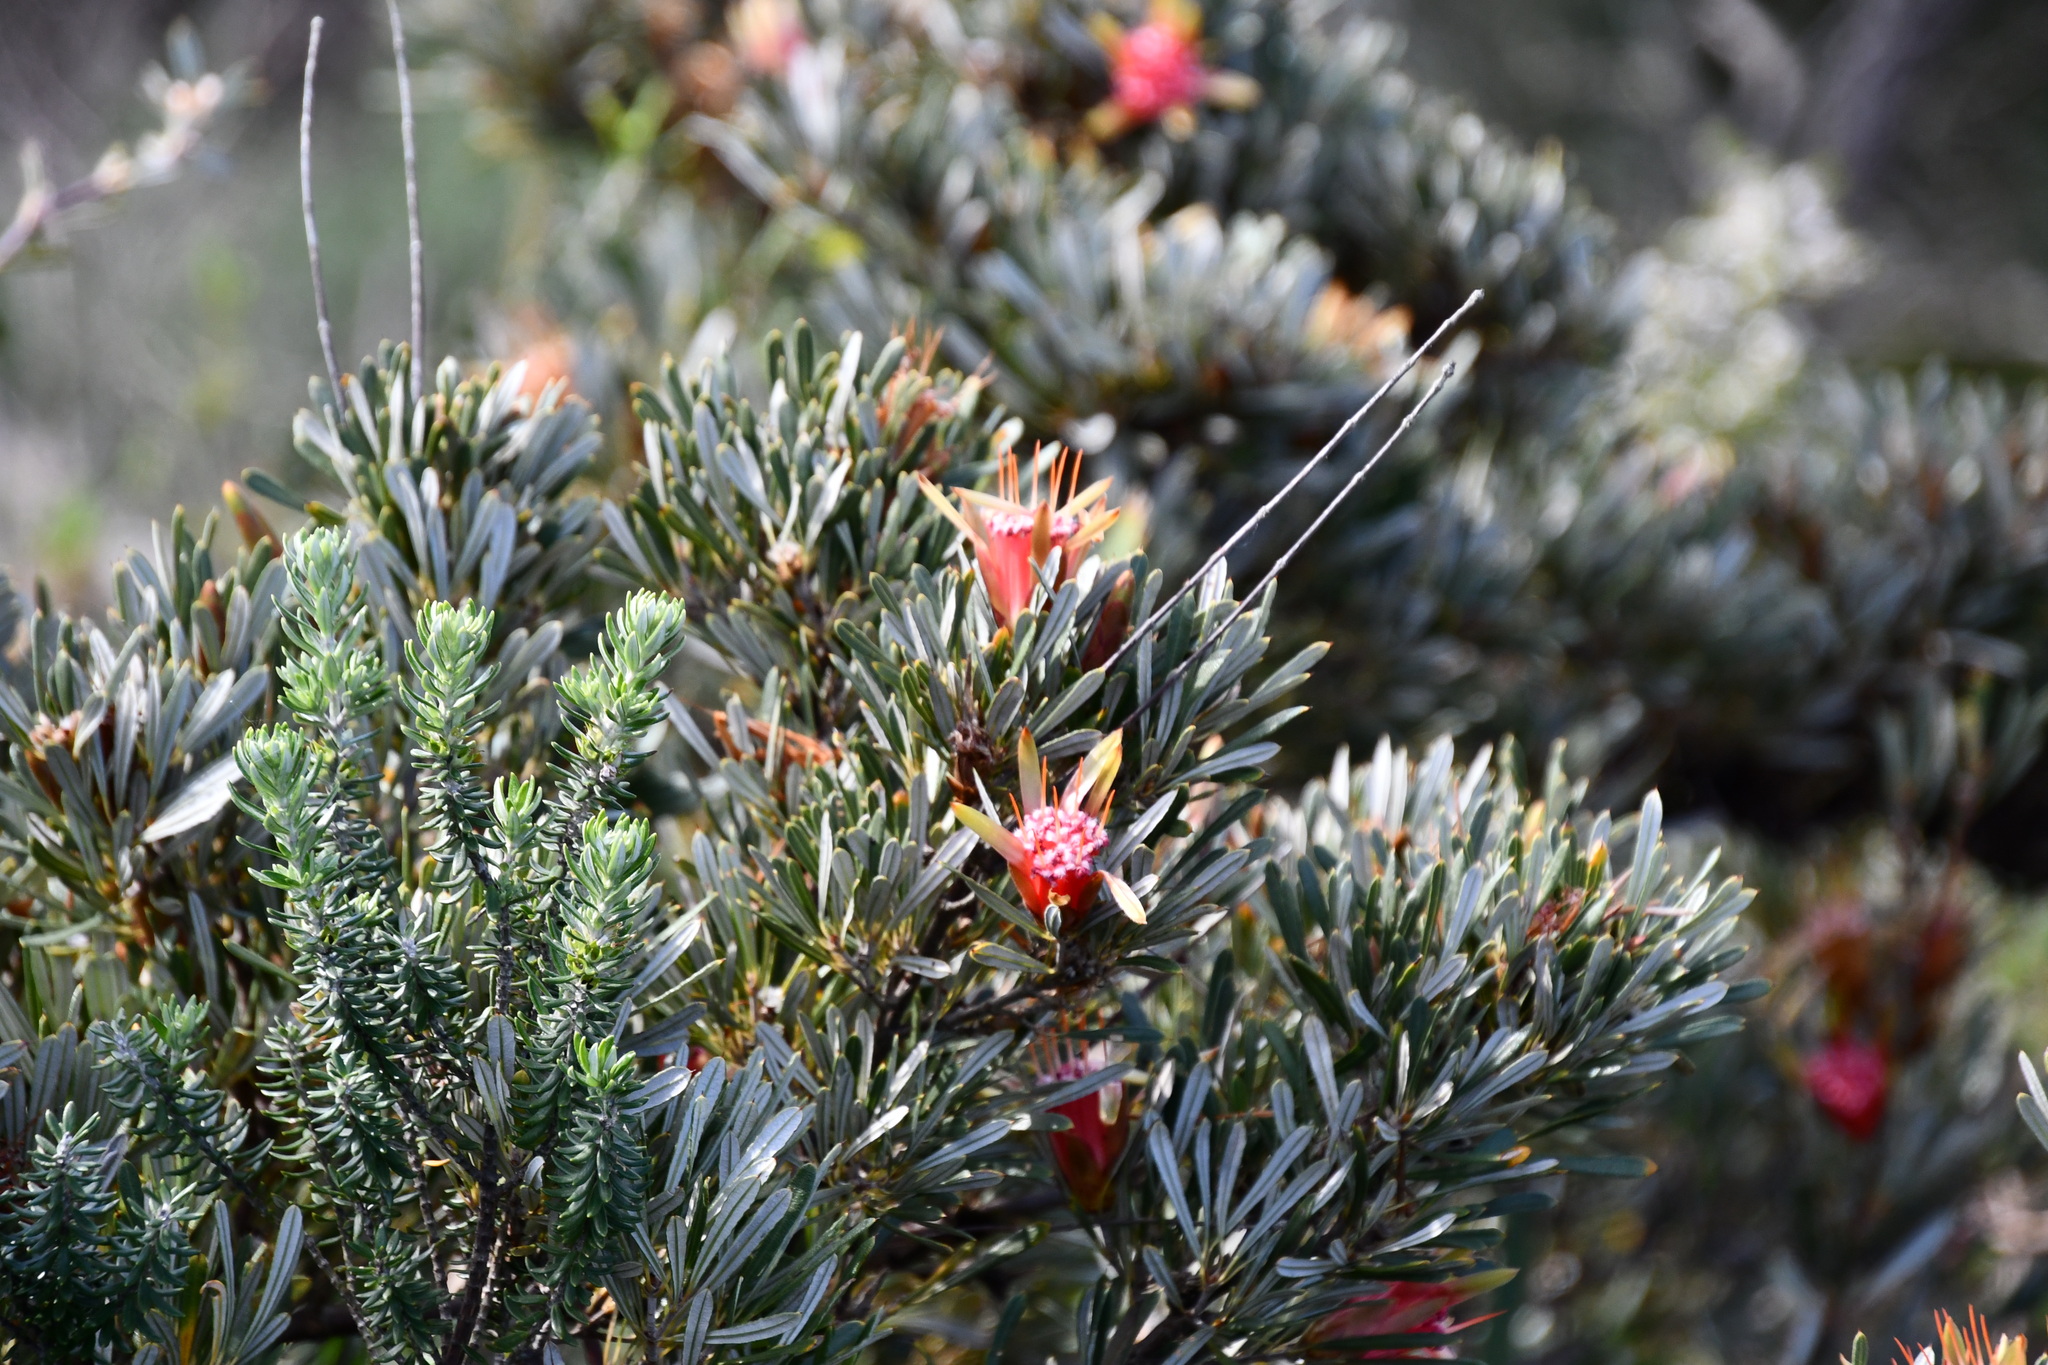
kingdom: Plantae
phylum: Tracheophyta
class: Magnoliopsida
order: Proteales
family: Proteaceae
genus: Lambertia
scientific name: Lambertia formosa
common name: Mountain-devil
